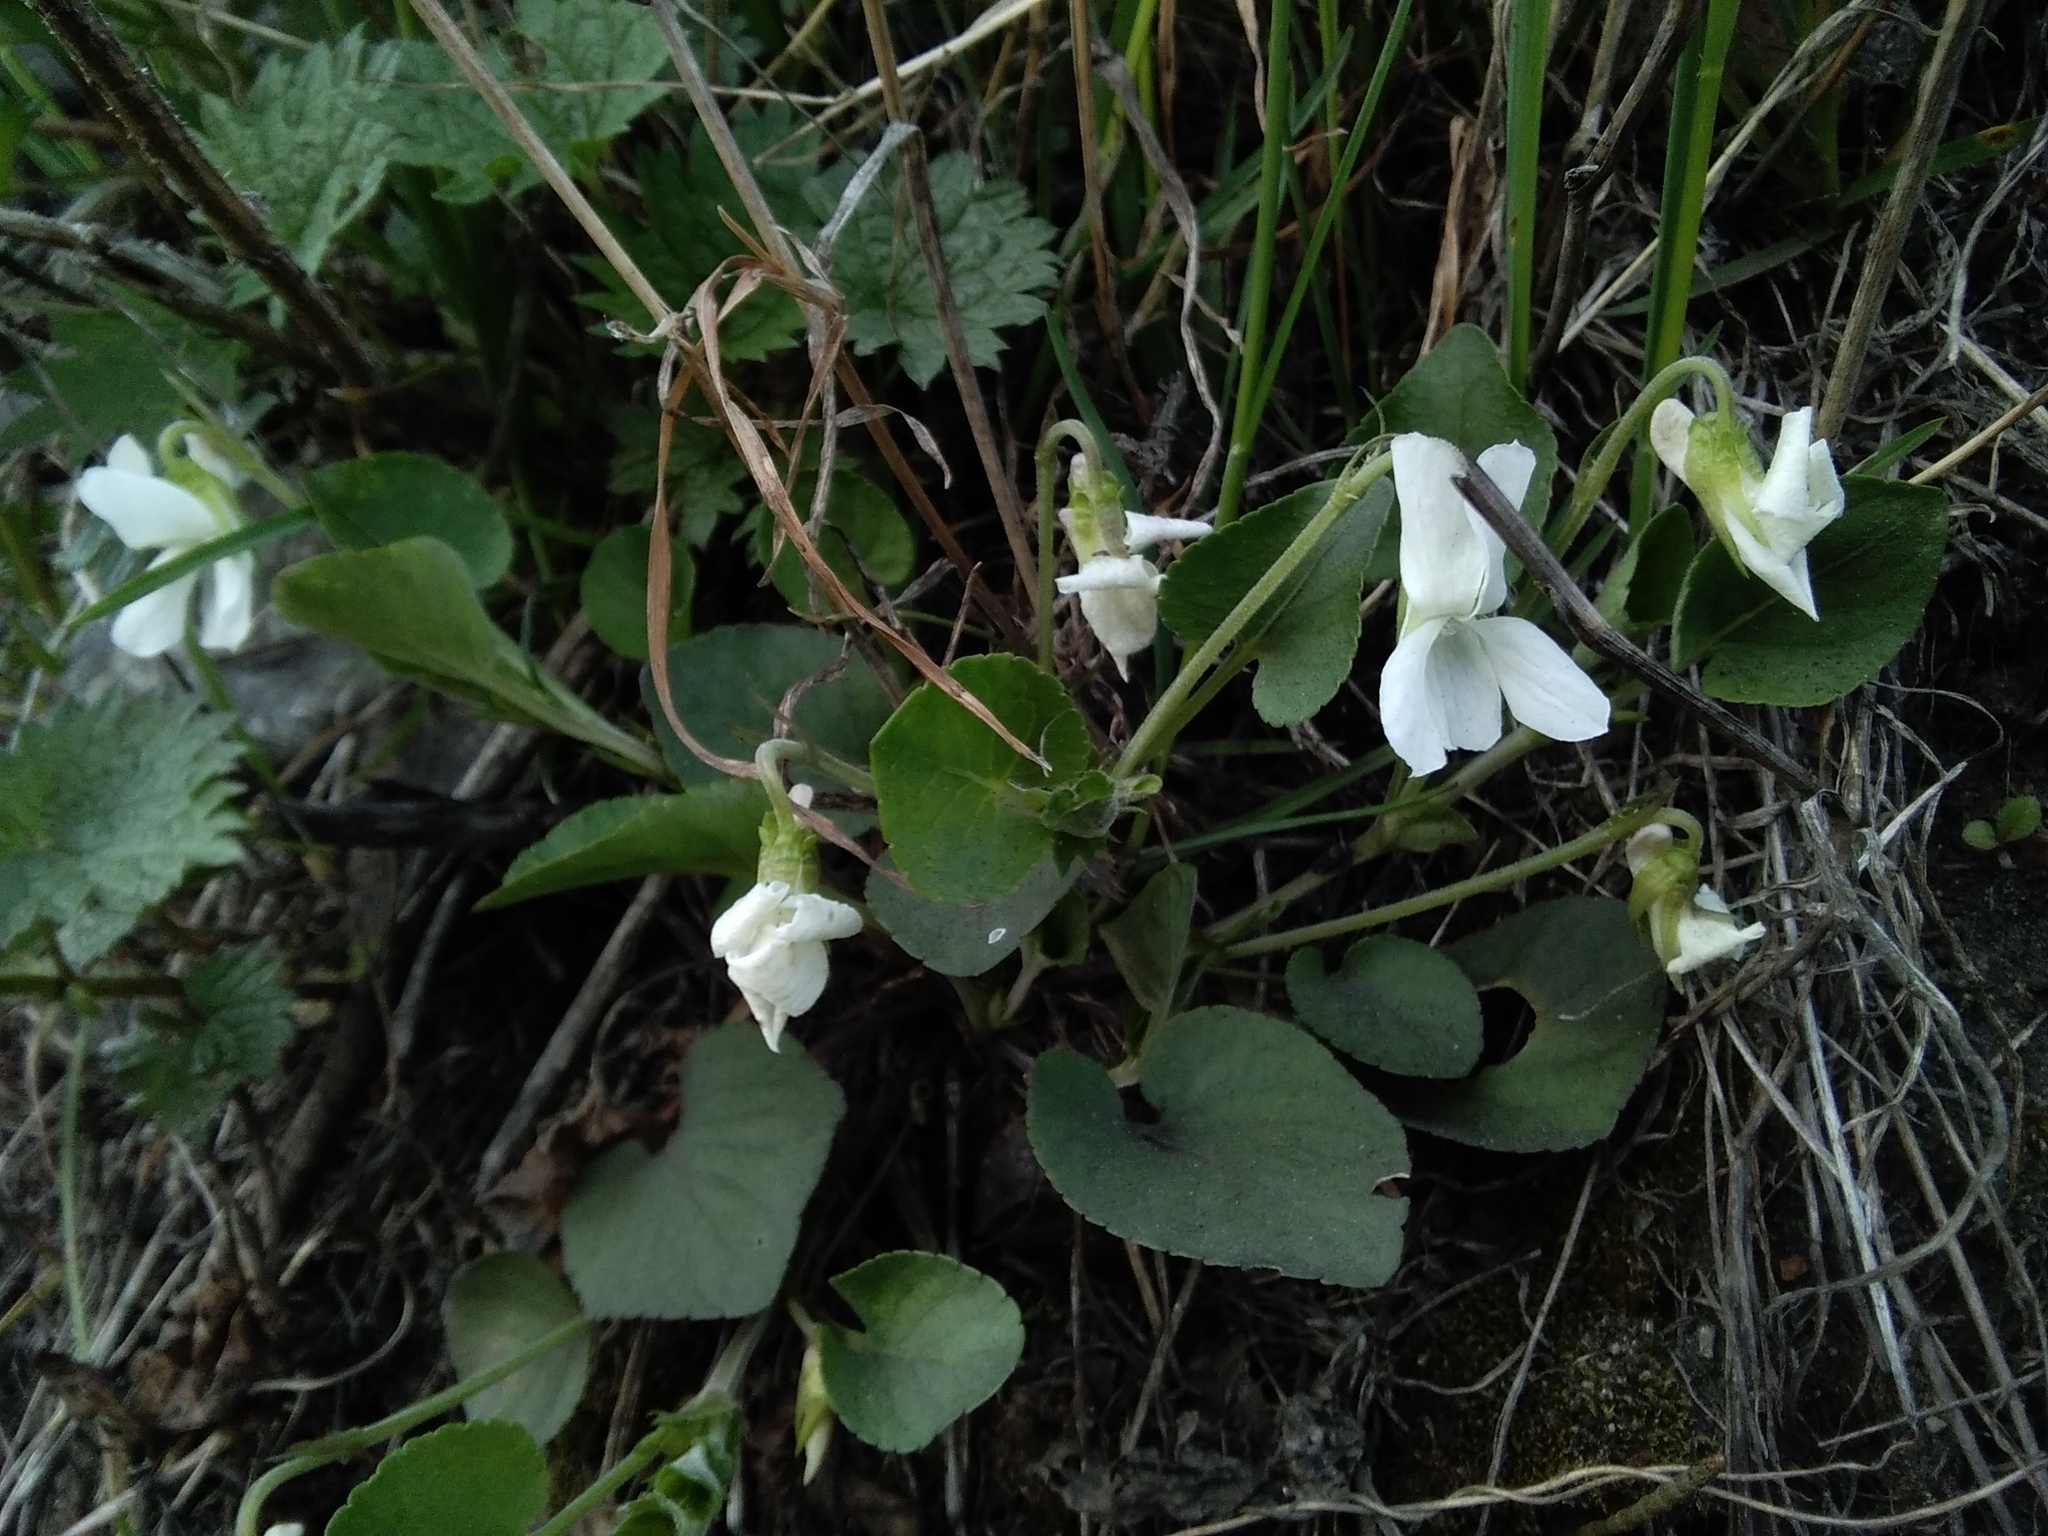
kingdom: Plantae
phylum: Tracheophyta
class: Magnoliopsida
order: Malpighiales
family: Violaceae
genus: Viola
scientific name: Viola rupestris
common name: Teesdale violet
